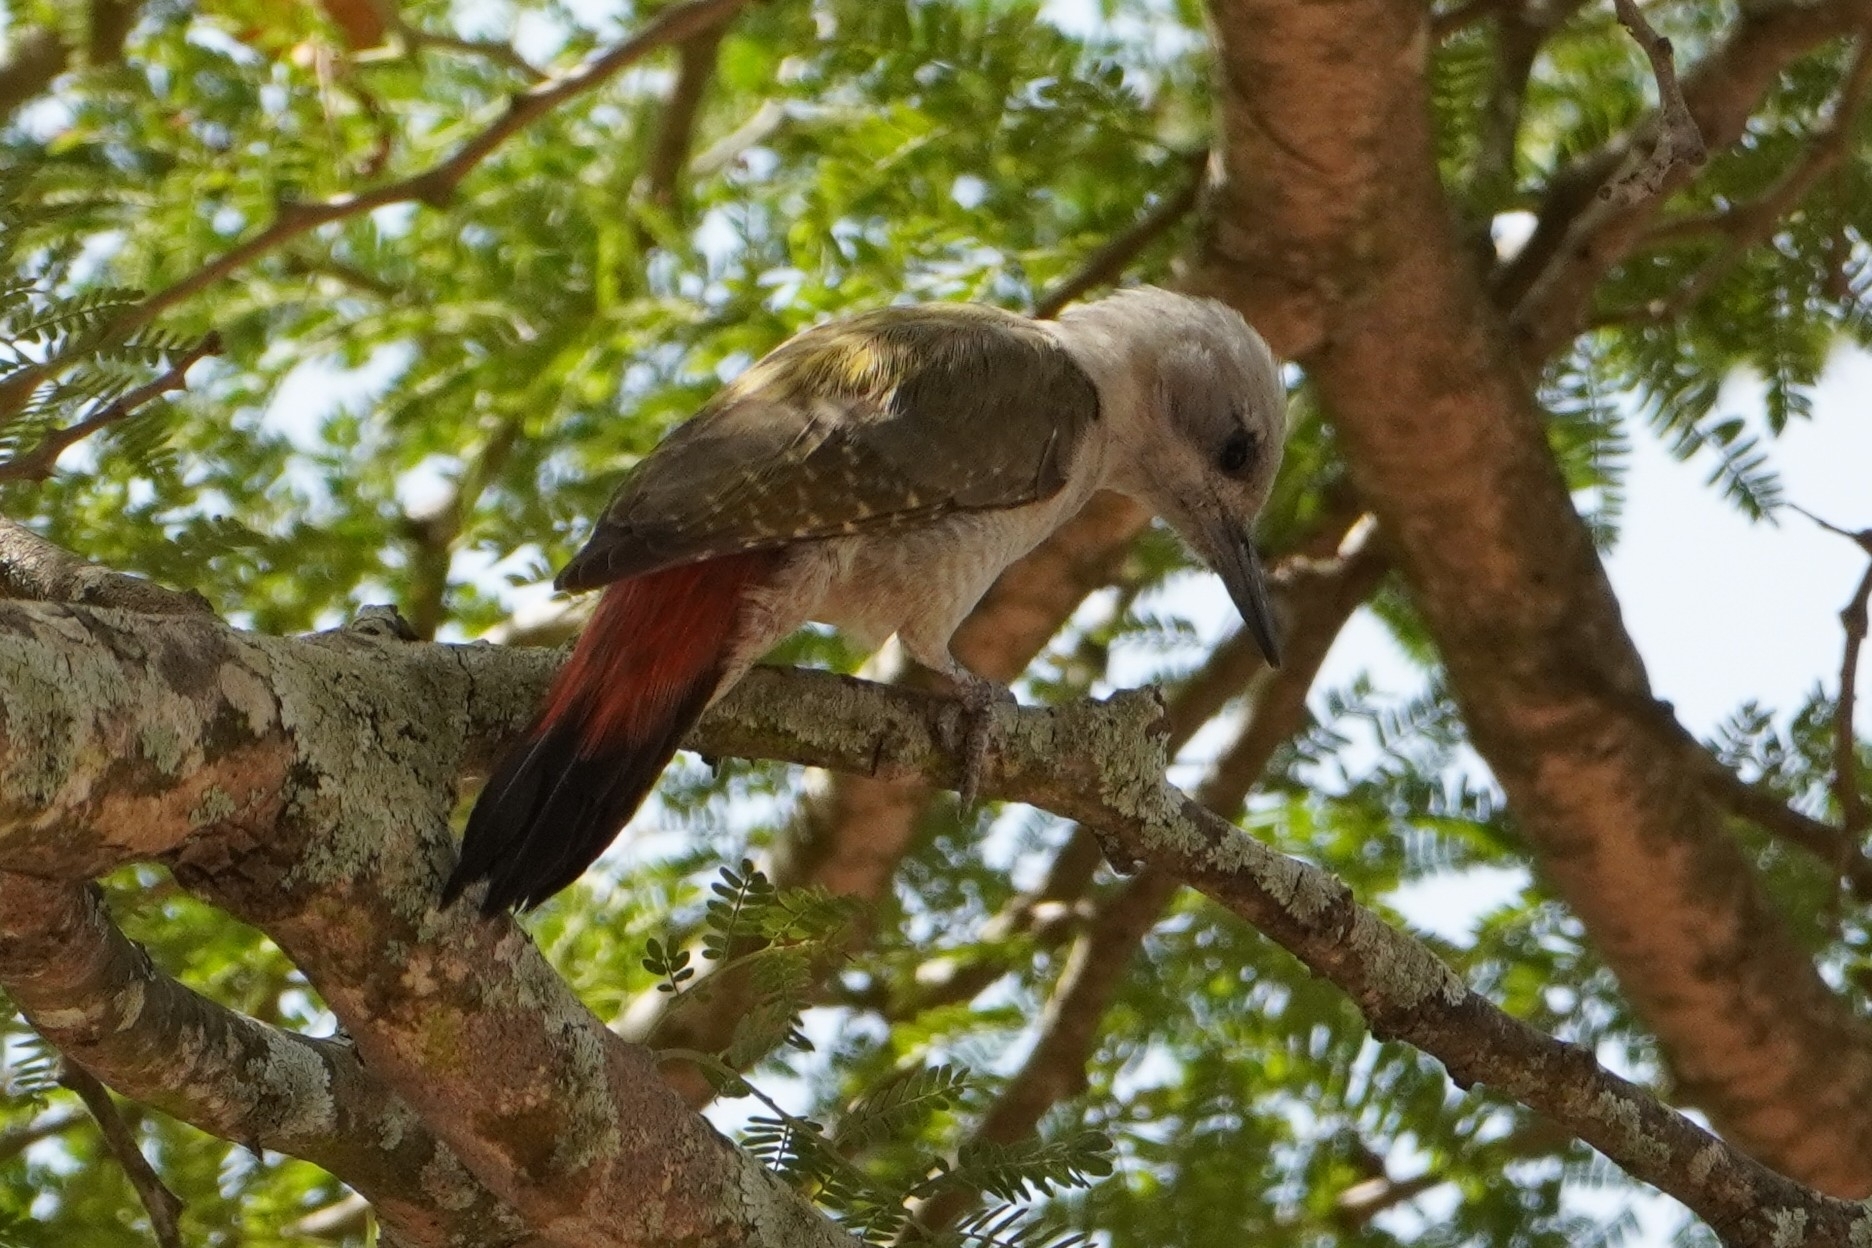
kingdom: Animalia
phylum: Chordata
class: Aves
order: Piciformes
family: Picidae
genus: Dendropicos
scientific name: Dendropicos goertae
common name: African grey woodpecker
